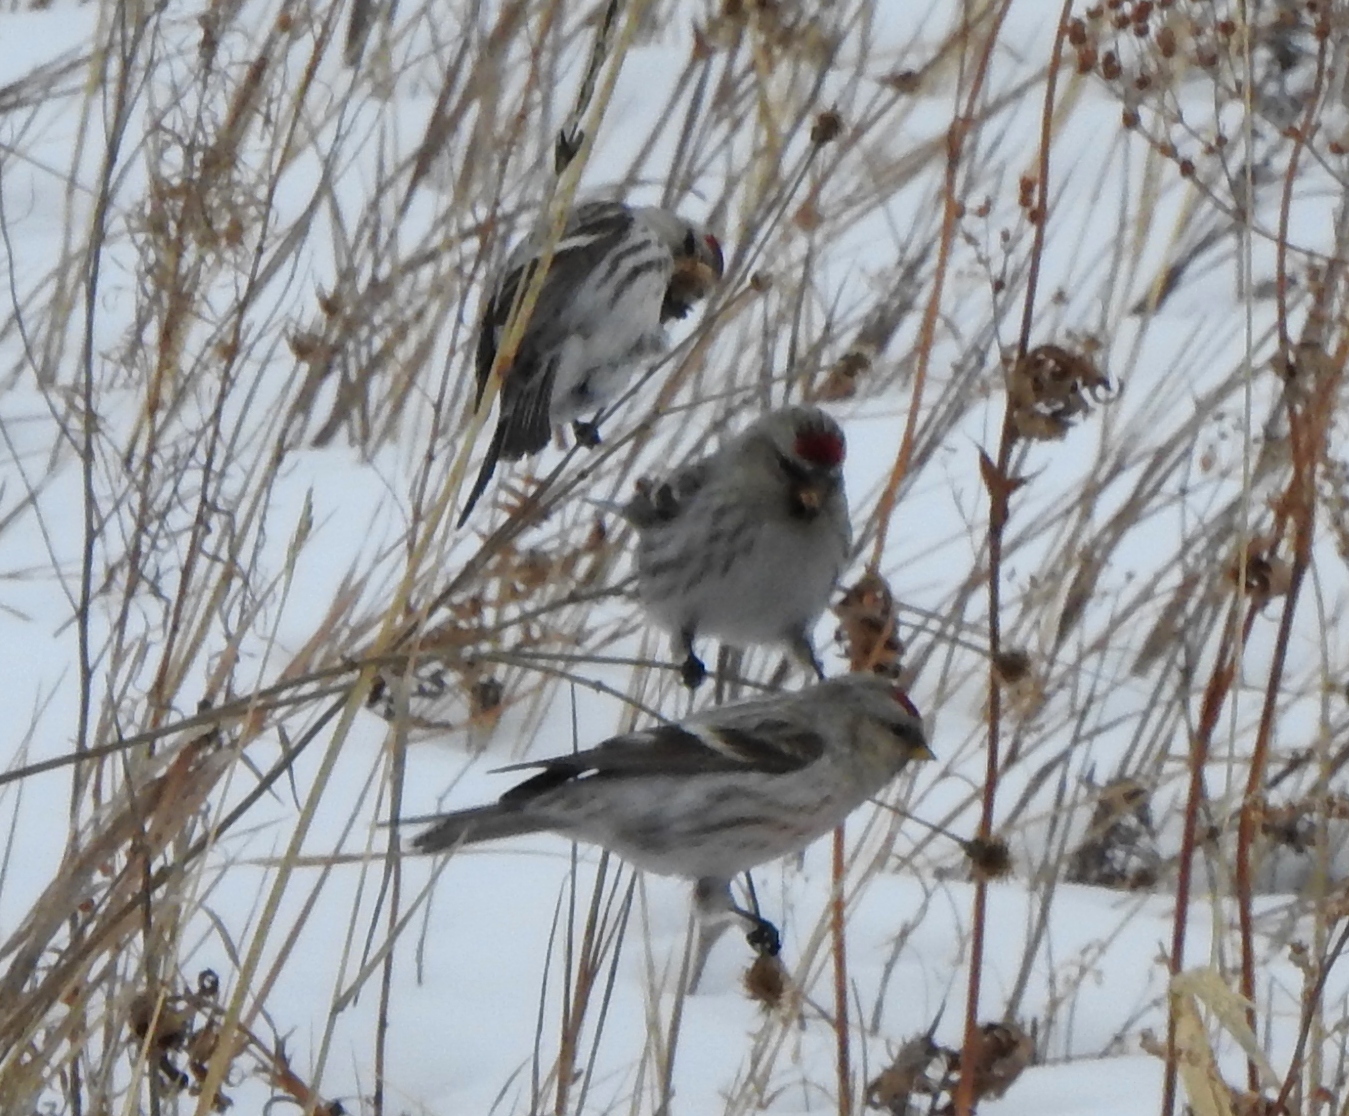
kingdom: Animalia
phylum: Chordata
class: Aves
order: Passeriformes
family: Fringillidae
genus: Acanthis
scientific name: Acanthis hornemanni
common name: Arctic redpoll
